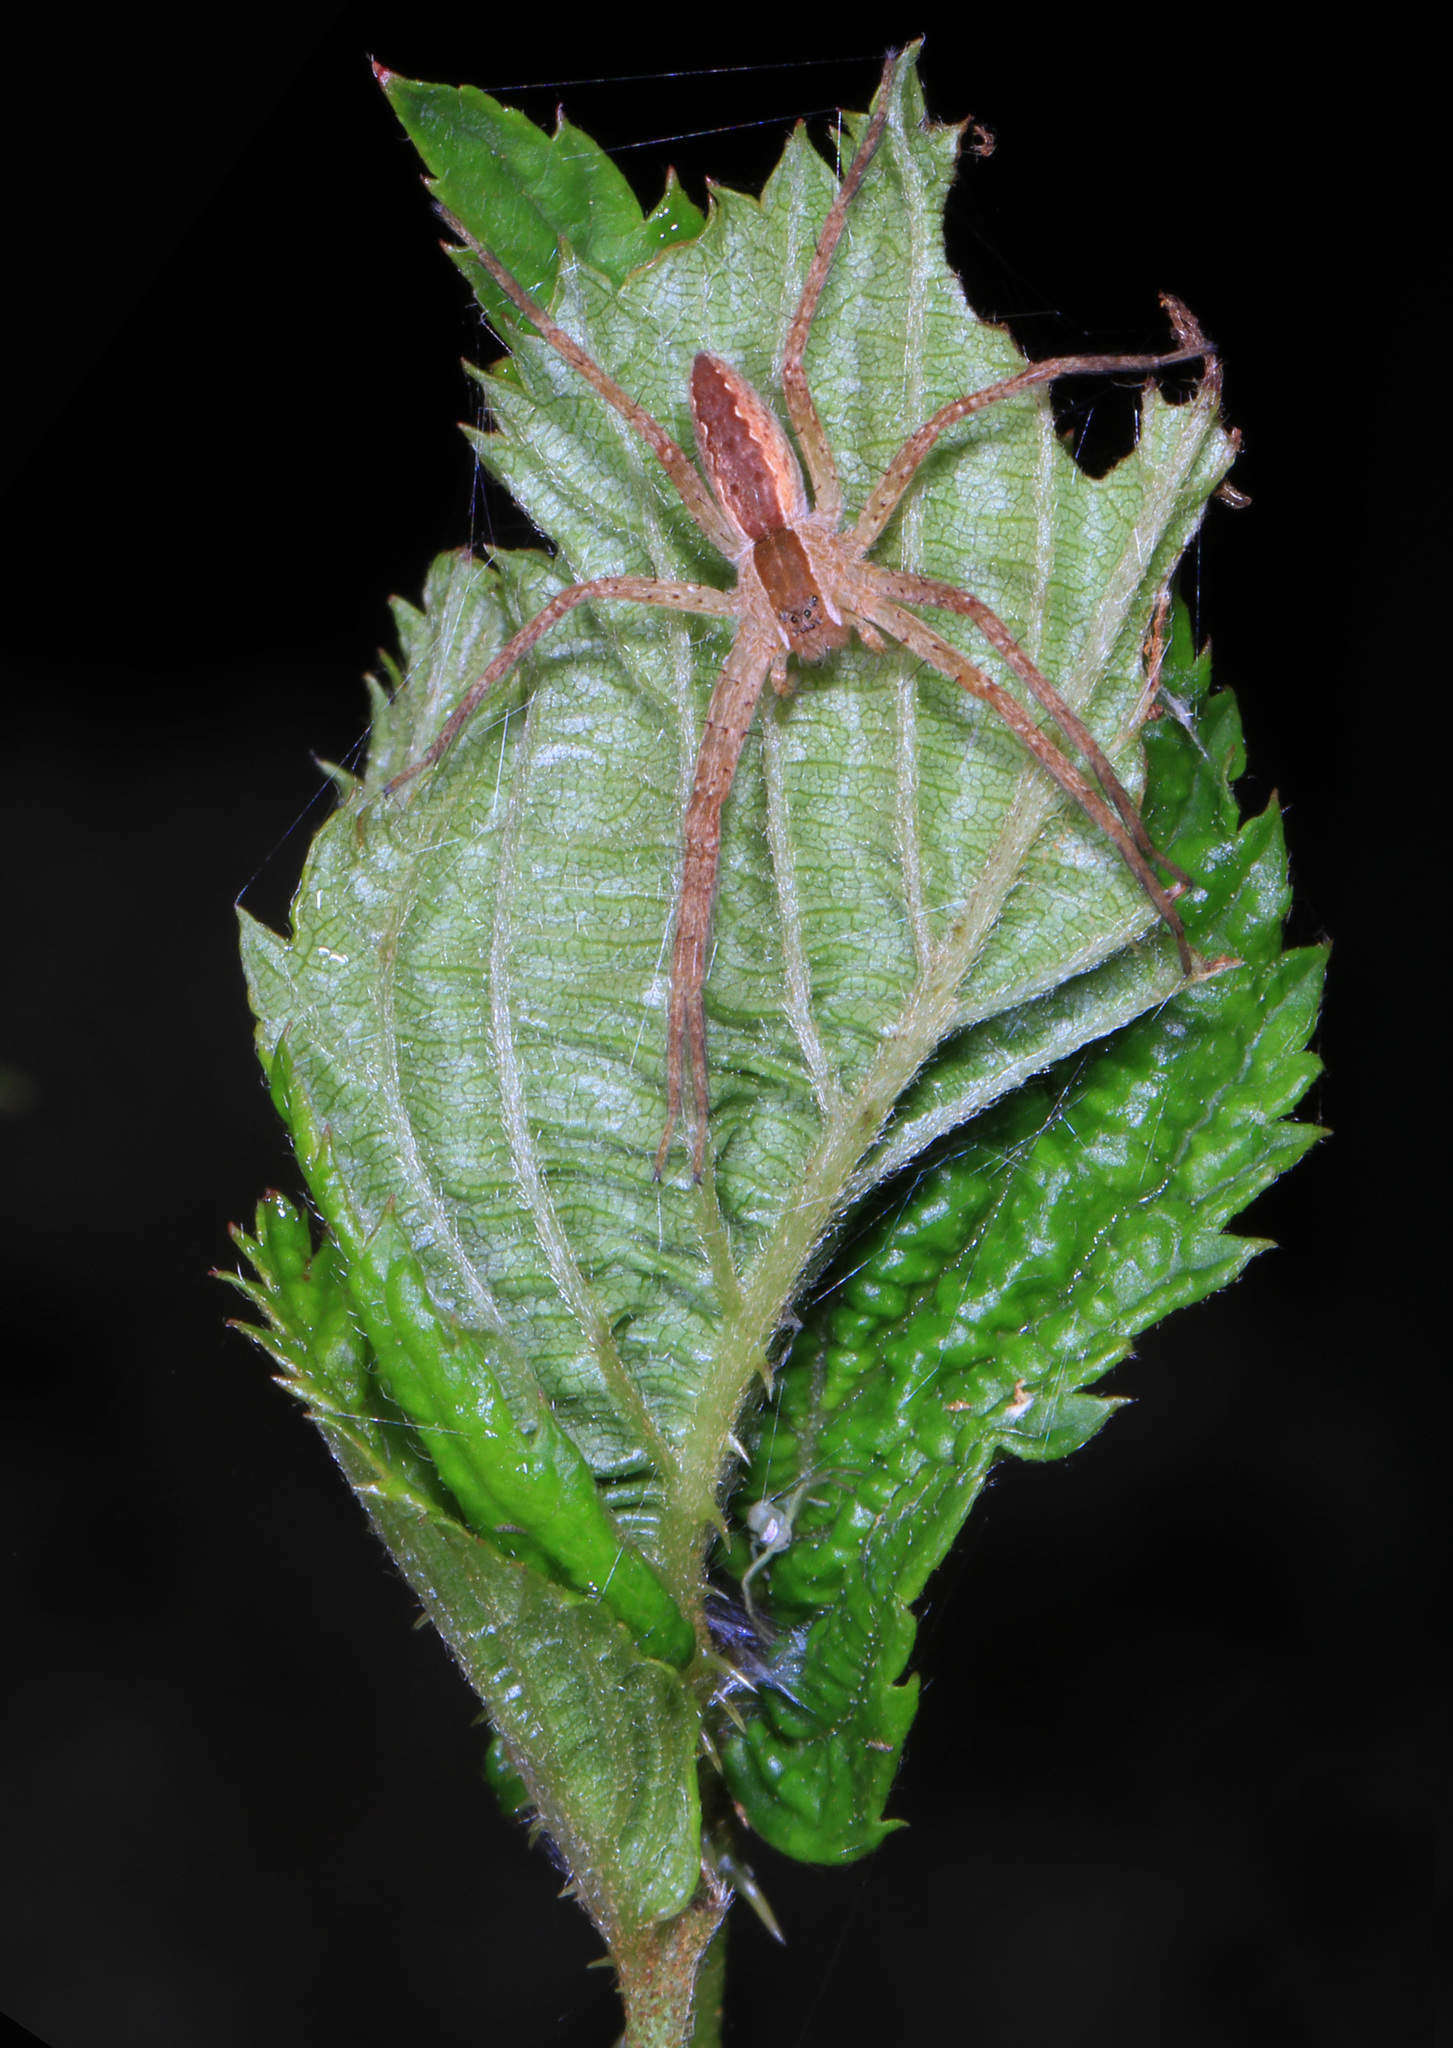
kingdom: Animalia
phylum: Arthropoda
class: Arachnida
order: Araneae
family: Pisauridae
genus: Pisaurina
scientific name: Pisaurina mira
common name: American nursery web spider
